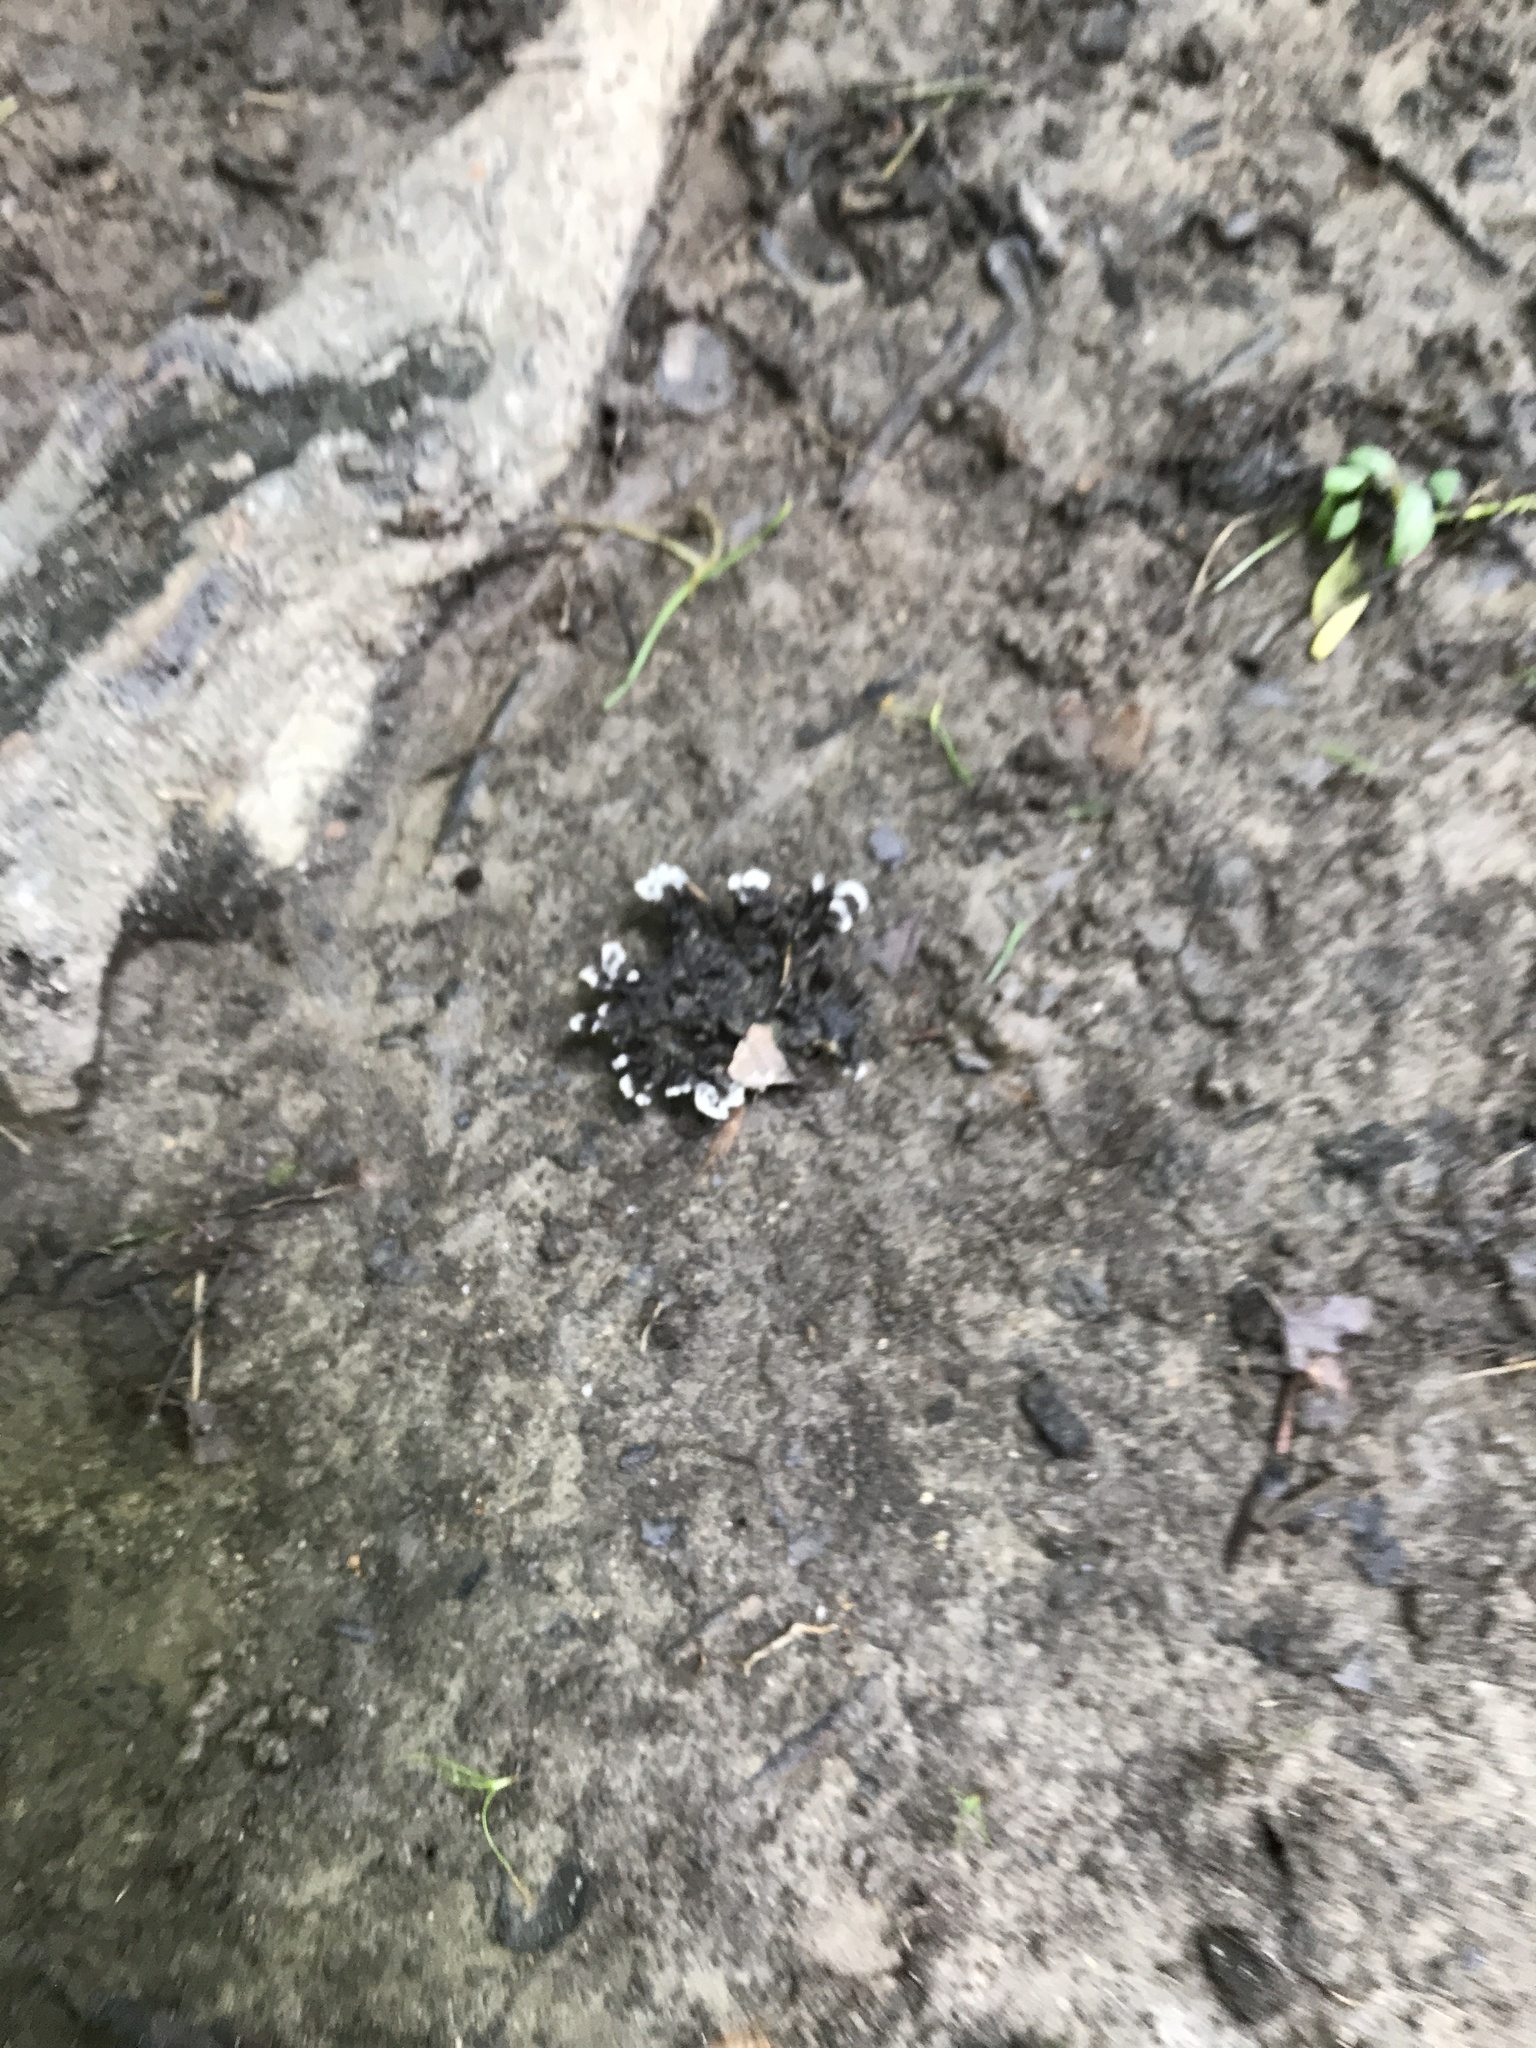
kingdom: Fungi
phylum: Basidiomycota
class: Agaricomycetes
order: Thelephorales
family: Thelephoraceae
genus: Thelephora
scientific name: Thelephora terrestris
